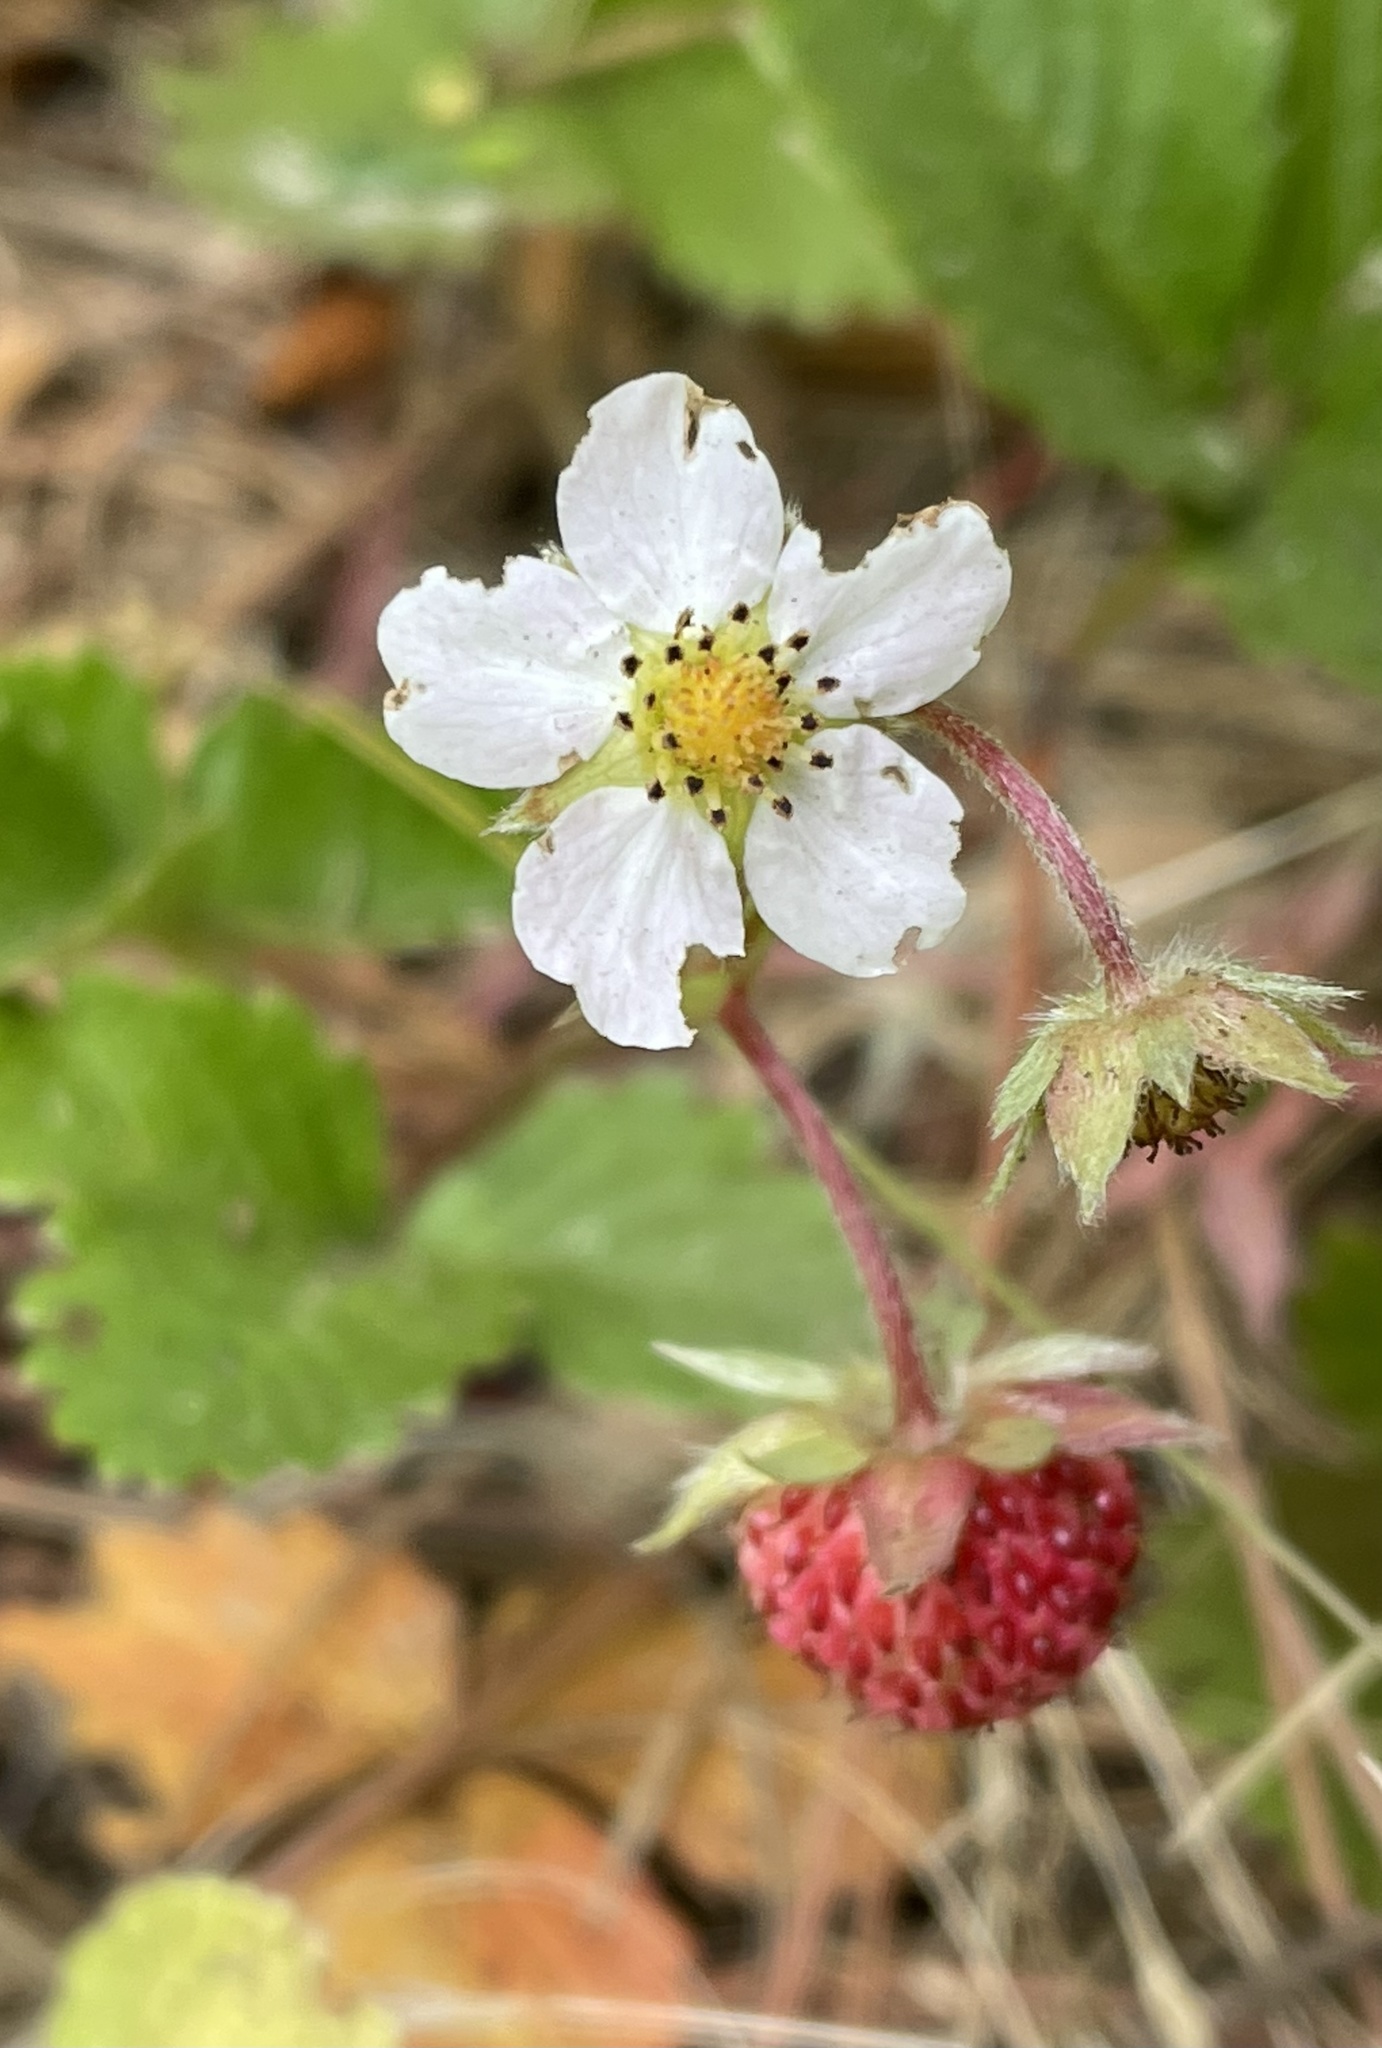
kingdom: Plantae
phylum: Tracheophyta
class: Magnoliopsida
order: Rosales
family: Rosaceae
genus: Fragaria
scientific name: Fragaria vesca
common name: Wild strawberry
